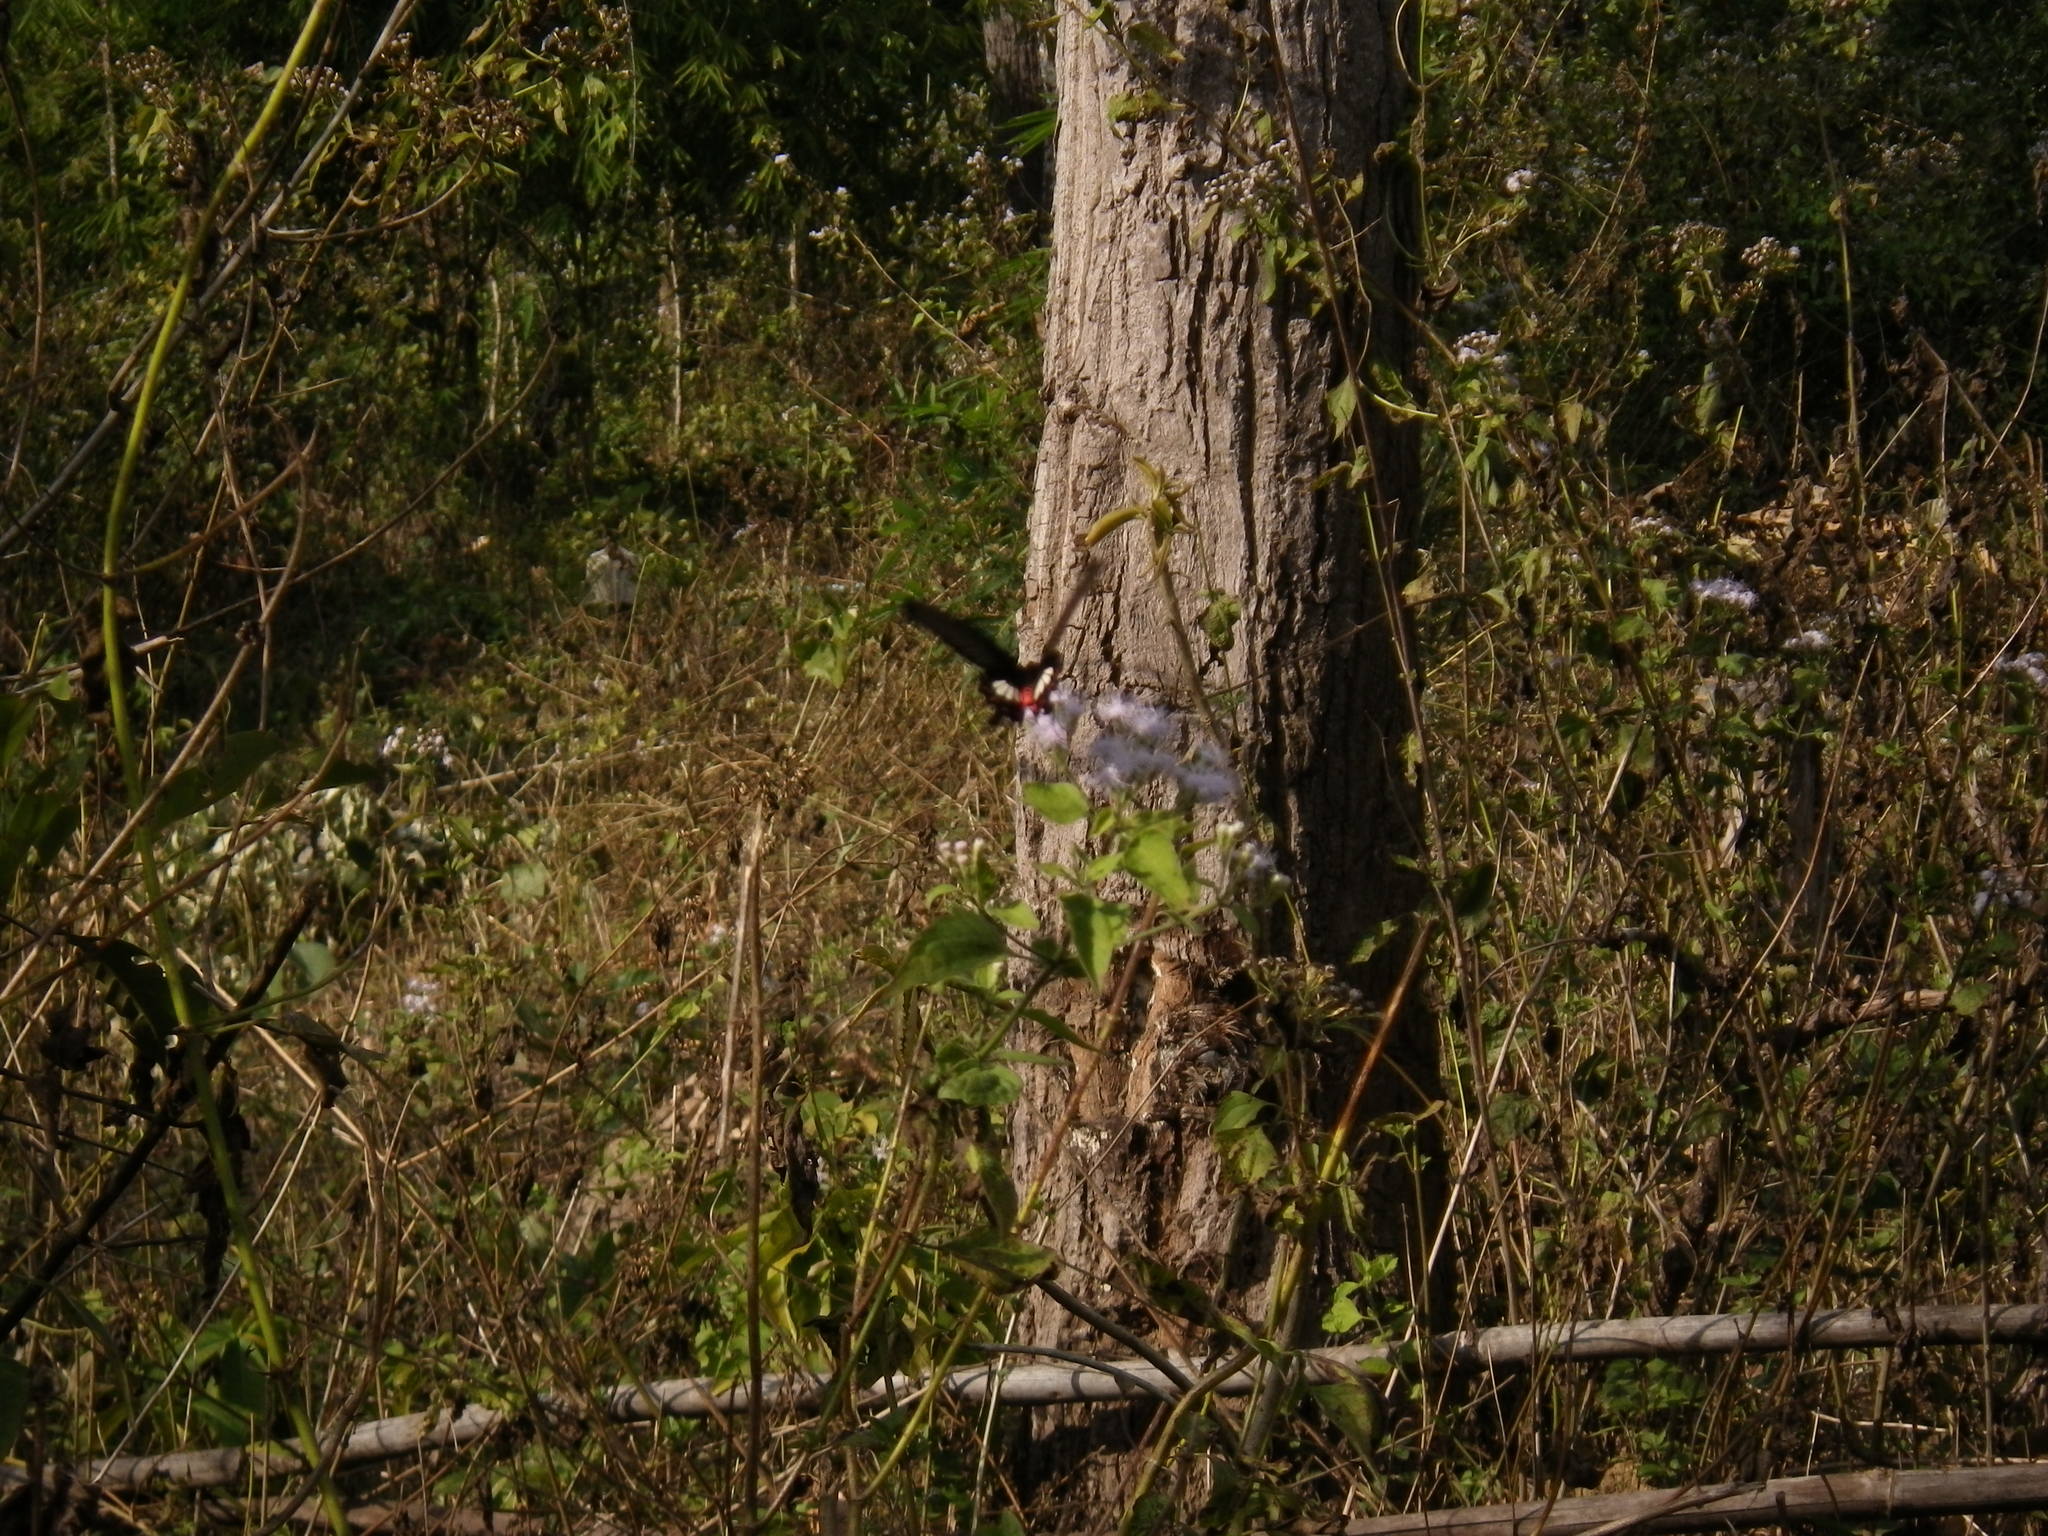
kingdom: Animalia
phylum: Arthropoda
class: Insecta
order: Lepidoptera
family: Papilionidae
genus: Atrophaneura
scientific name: Atrophaneura zaleucus
